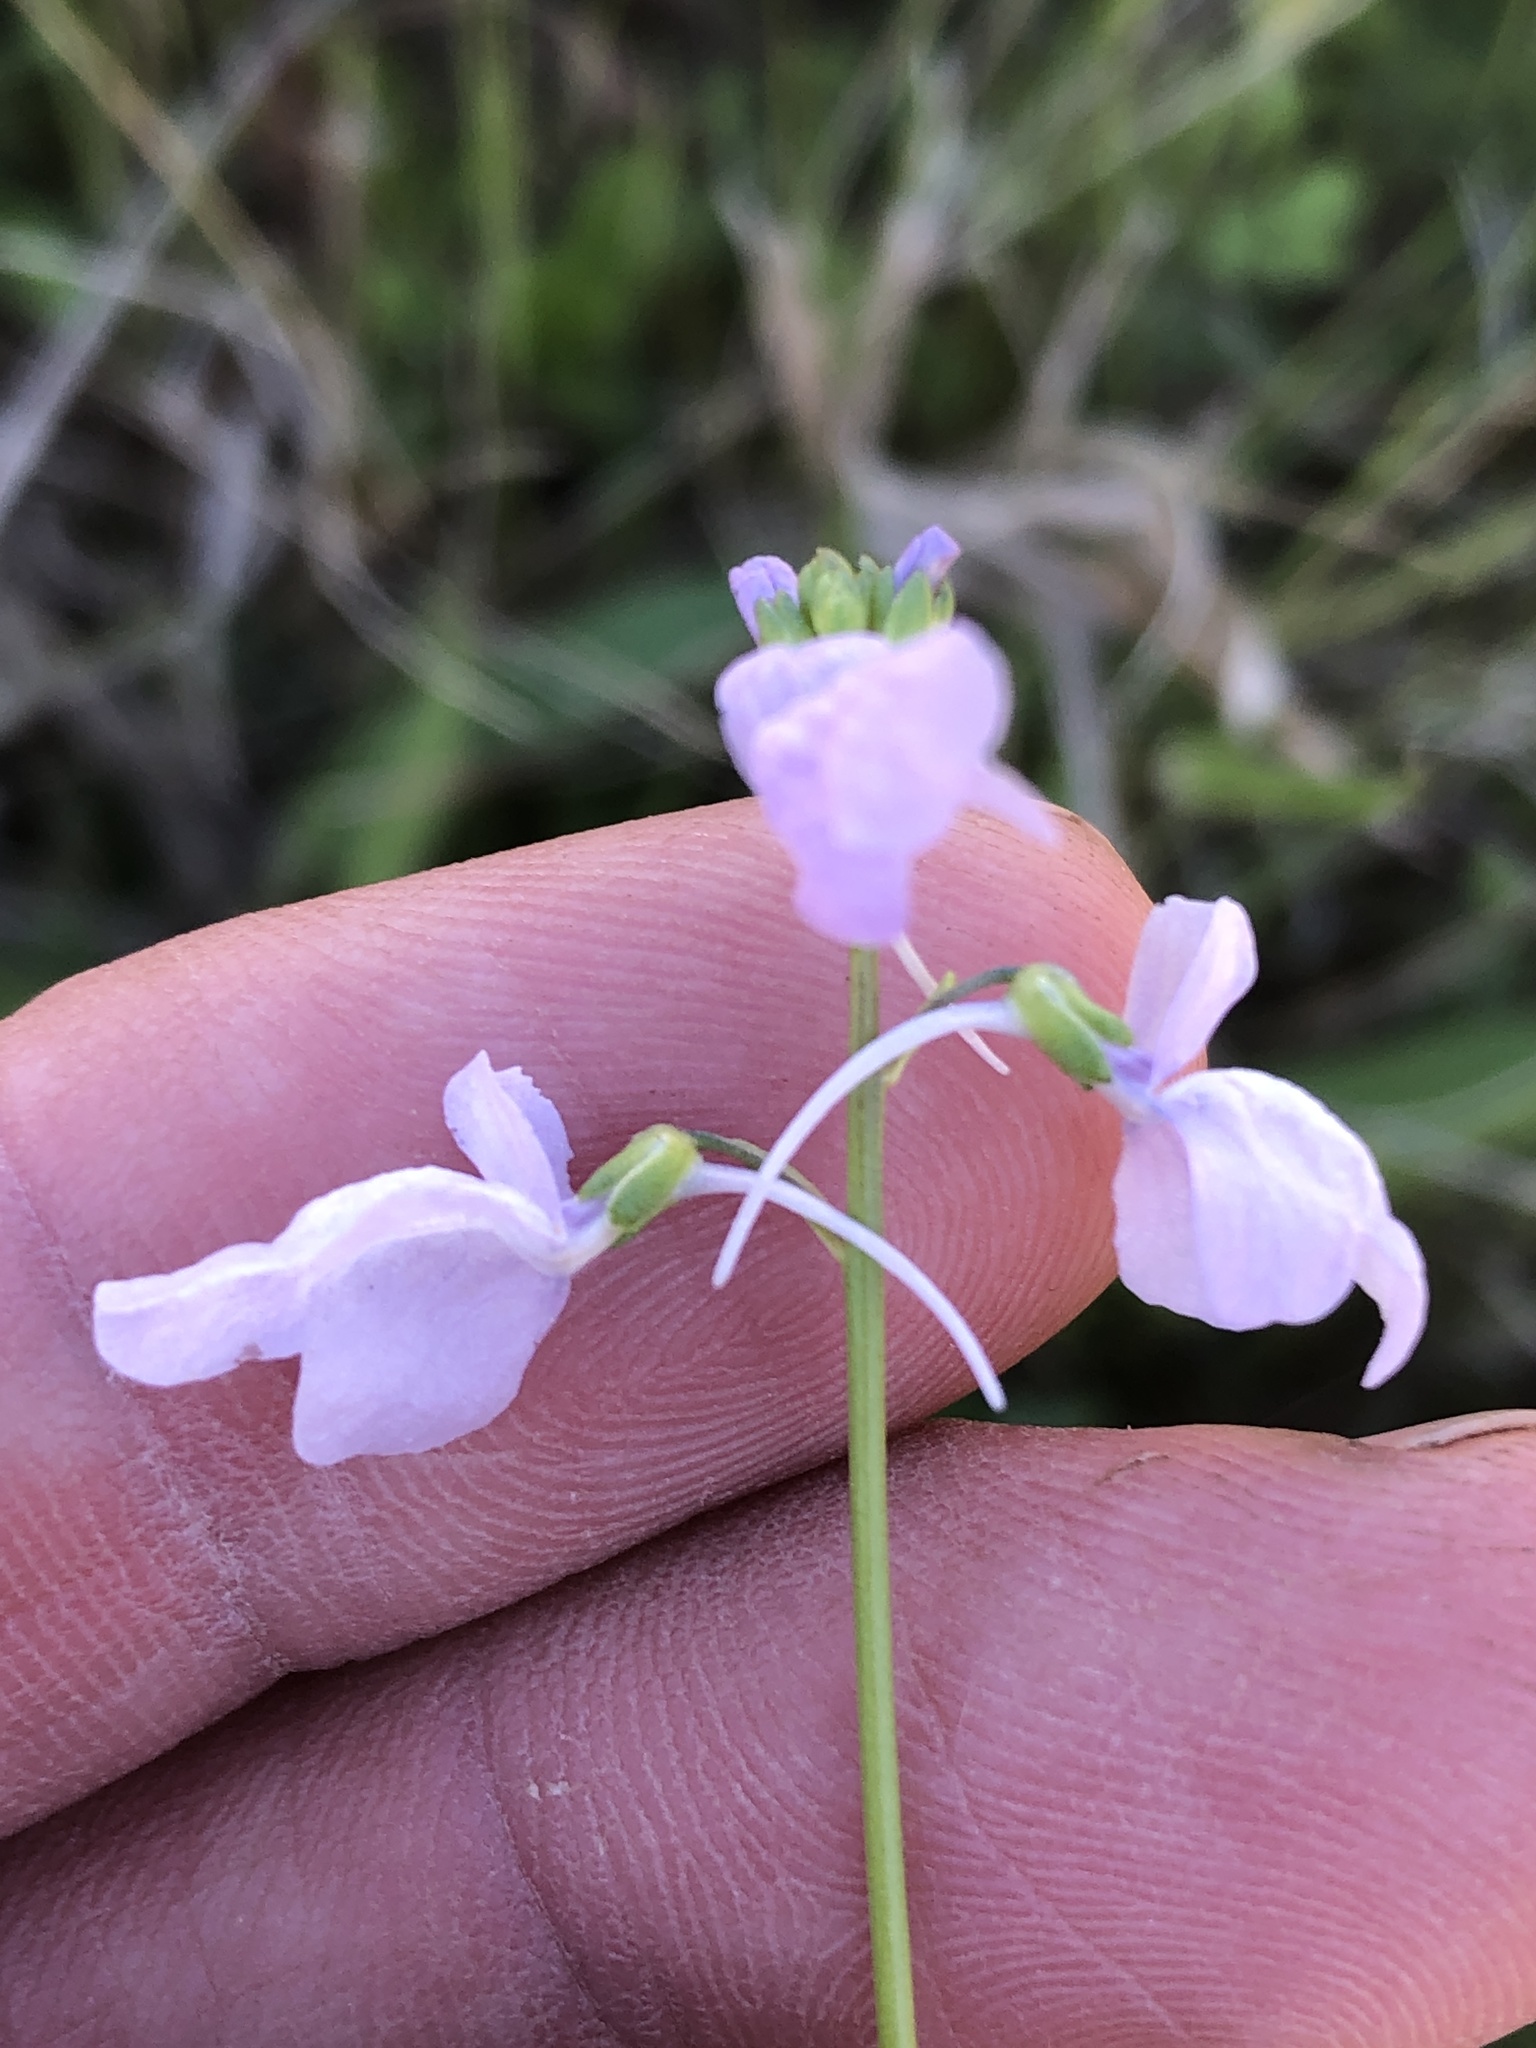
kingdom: Plantae
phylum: Tracheophyta
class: Magnoliopsida
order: Lamiales
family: Plantaginaceae
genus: Nuttallanthus
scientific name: Nuttallanthus texanus
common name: Texas toadflax
